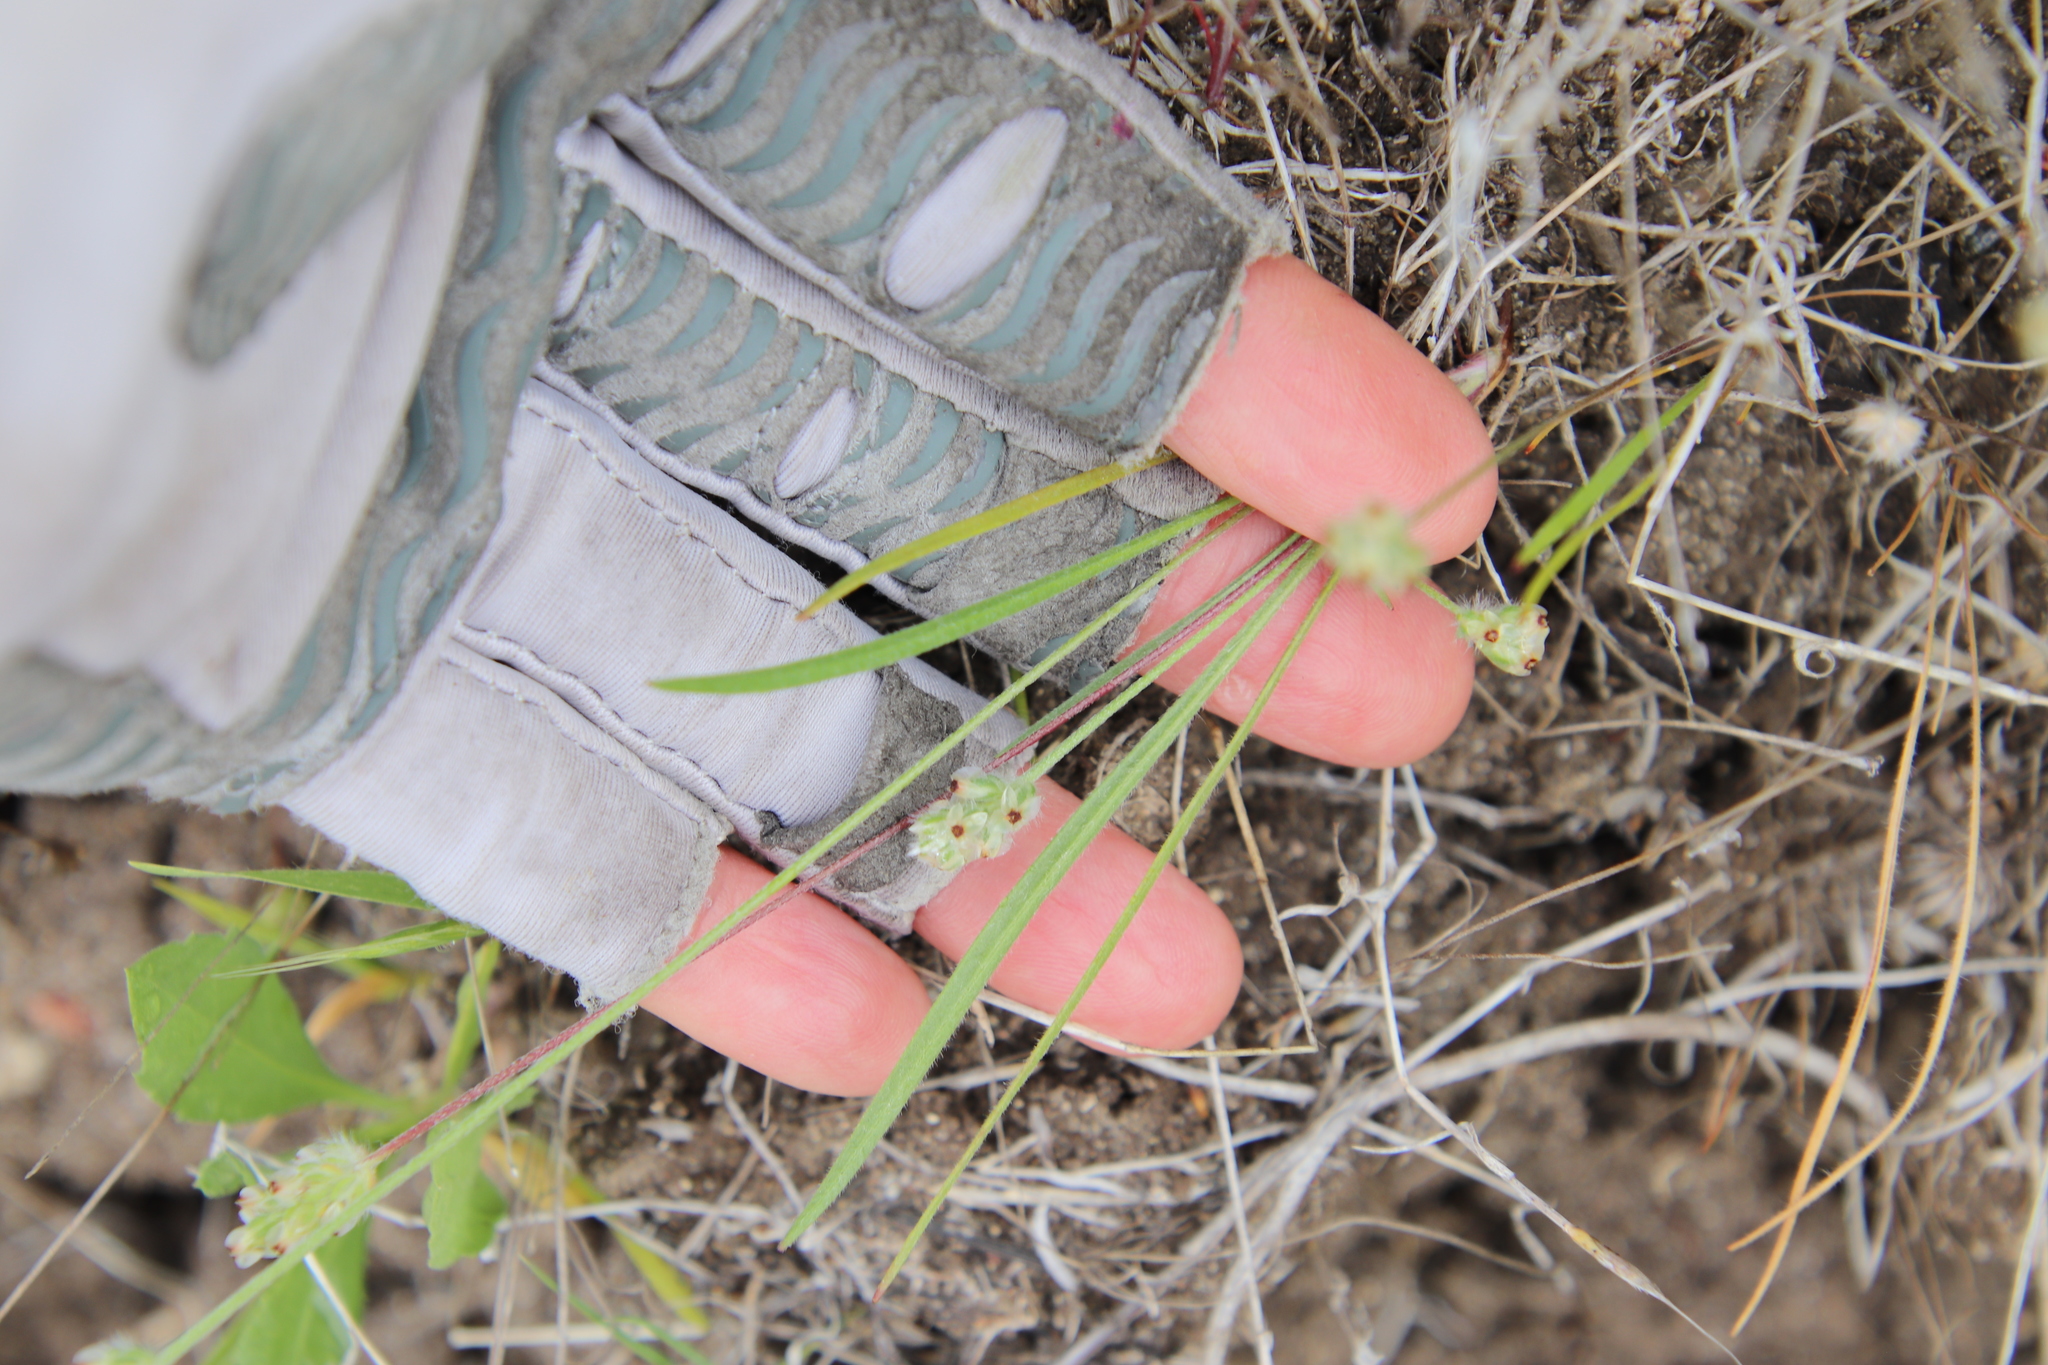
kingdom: Plantae
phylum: Tracheophyta
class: Magnoliopsida
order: Lamiales
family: Plantaginaceae
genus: Plantago
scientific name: Plantago erecta
